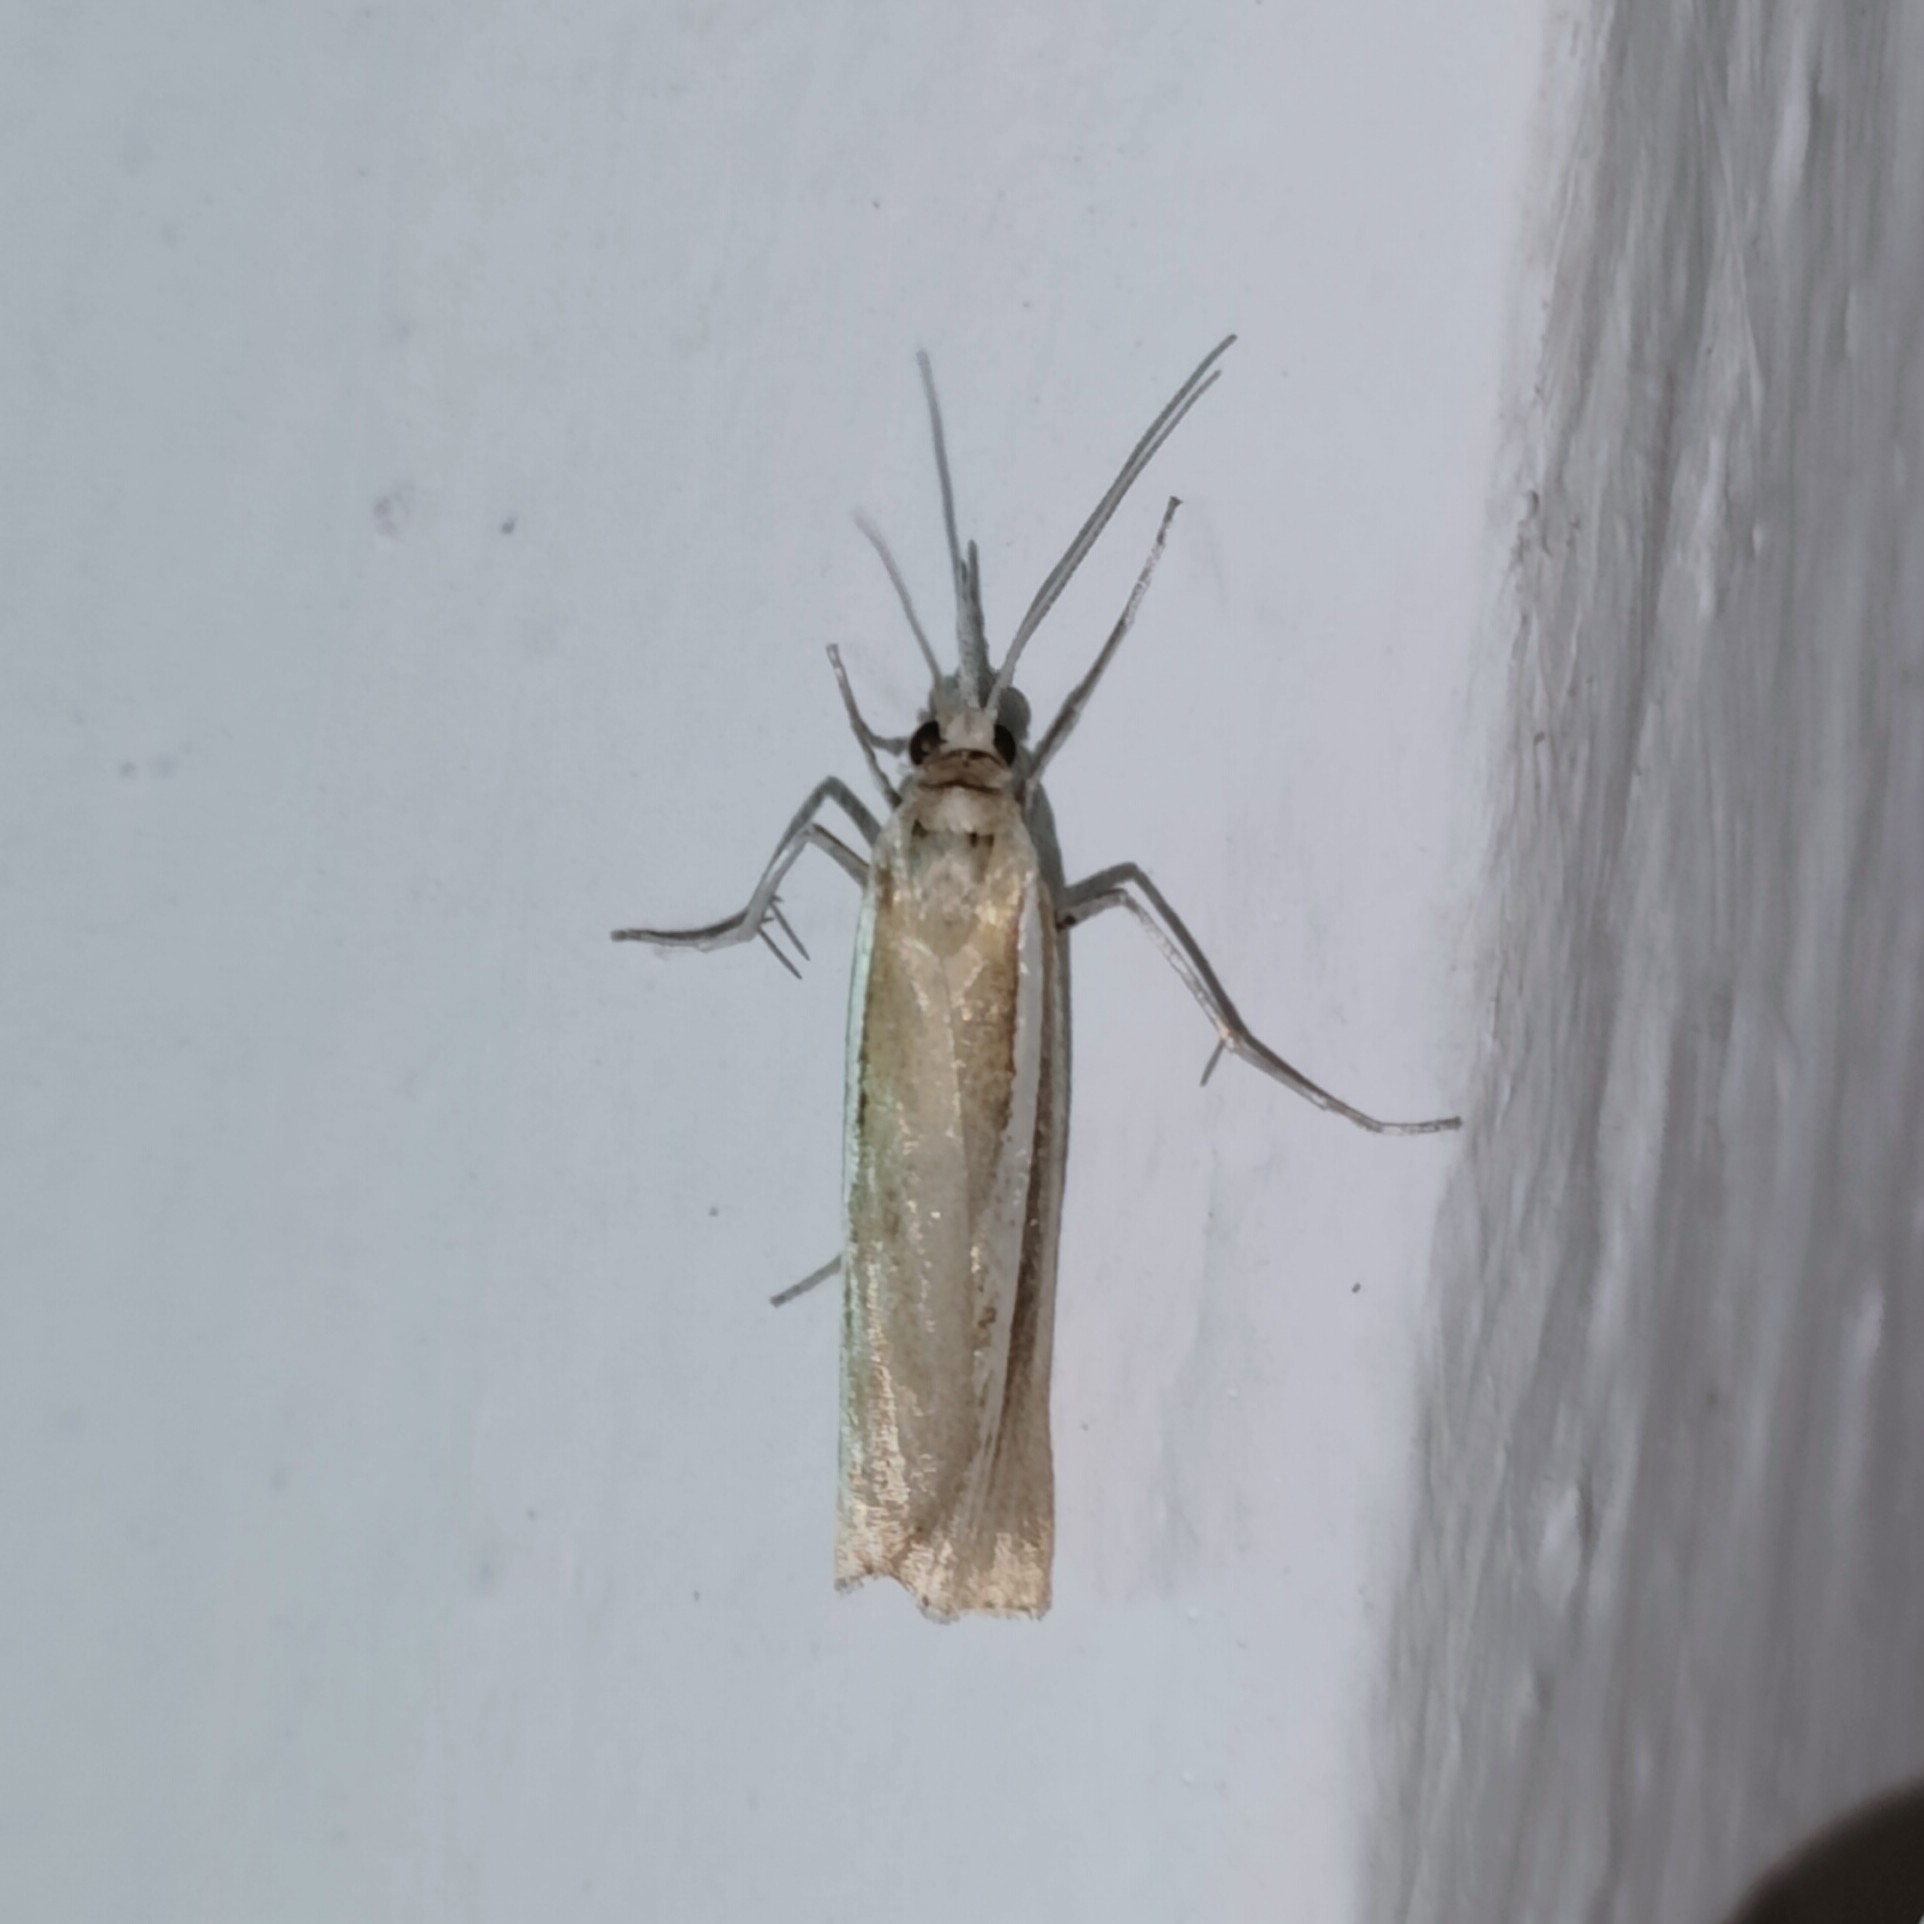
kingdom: Animalia
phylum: Arthropoda
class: Insecta
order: Lepidoptera
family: Crambidae
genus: Catoptria
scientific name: Catoptria fulgidella
